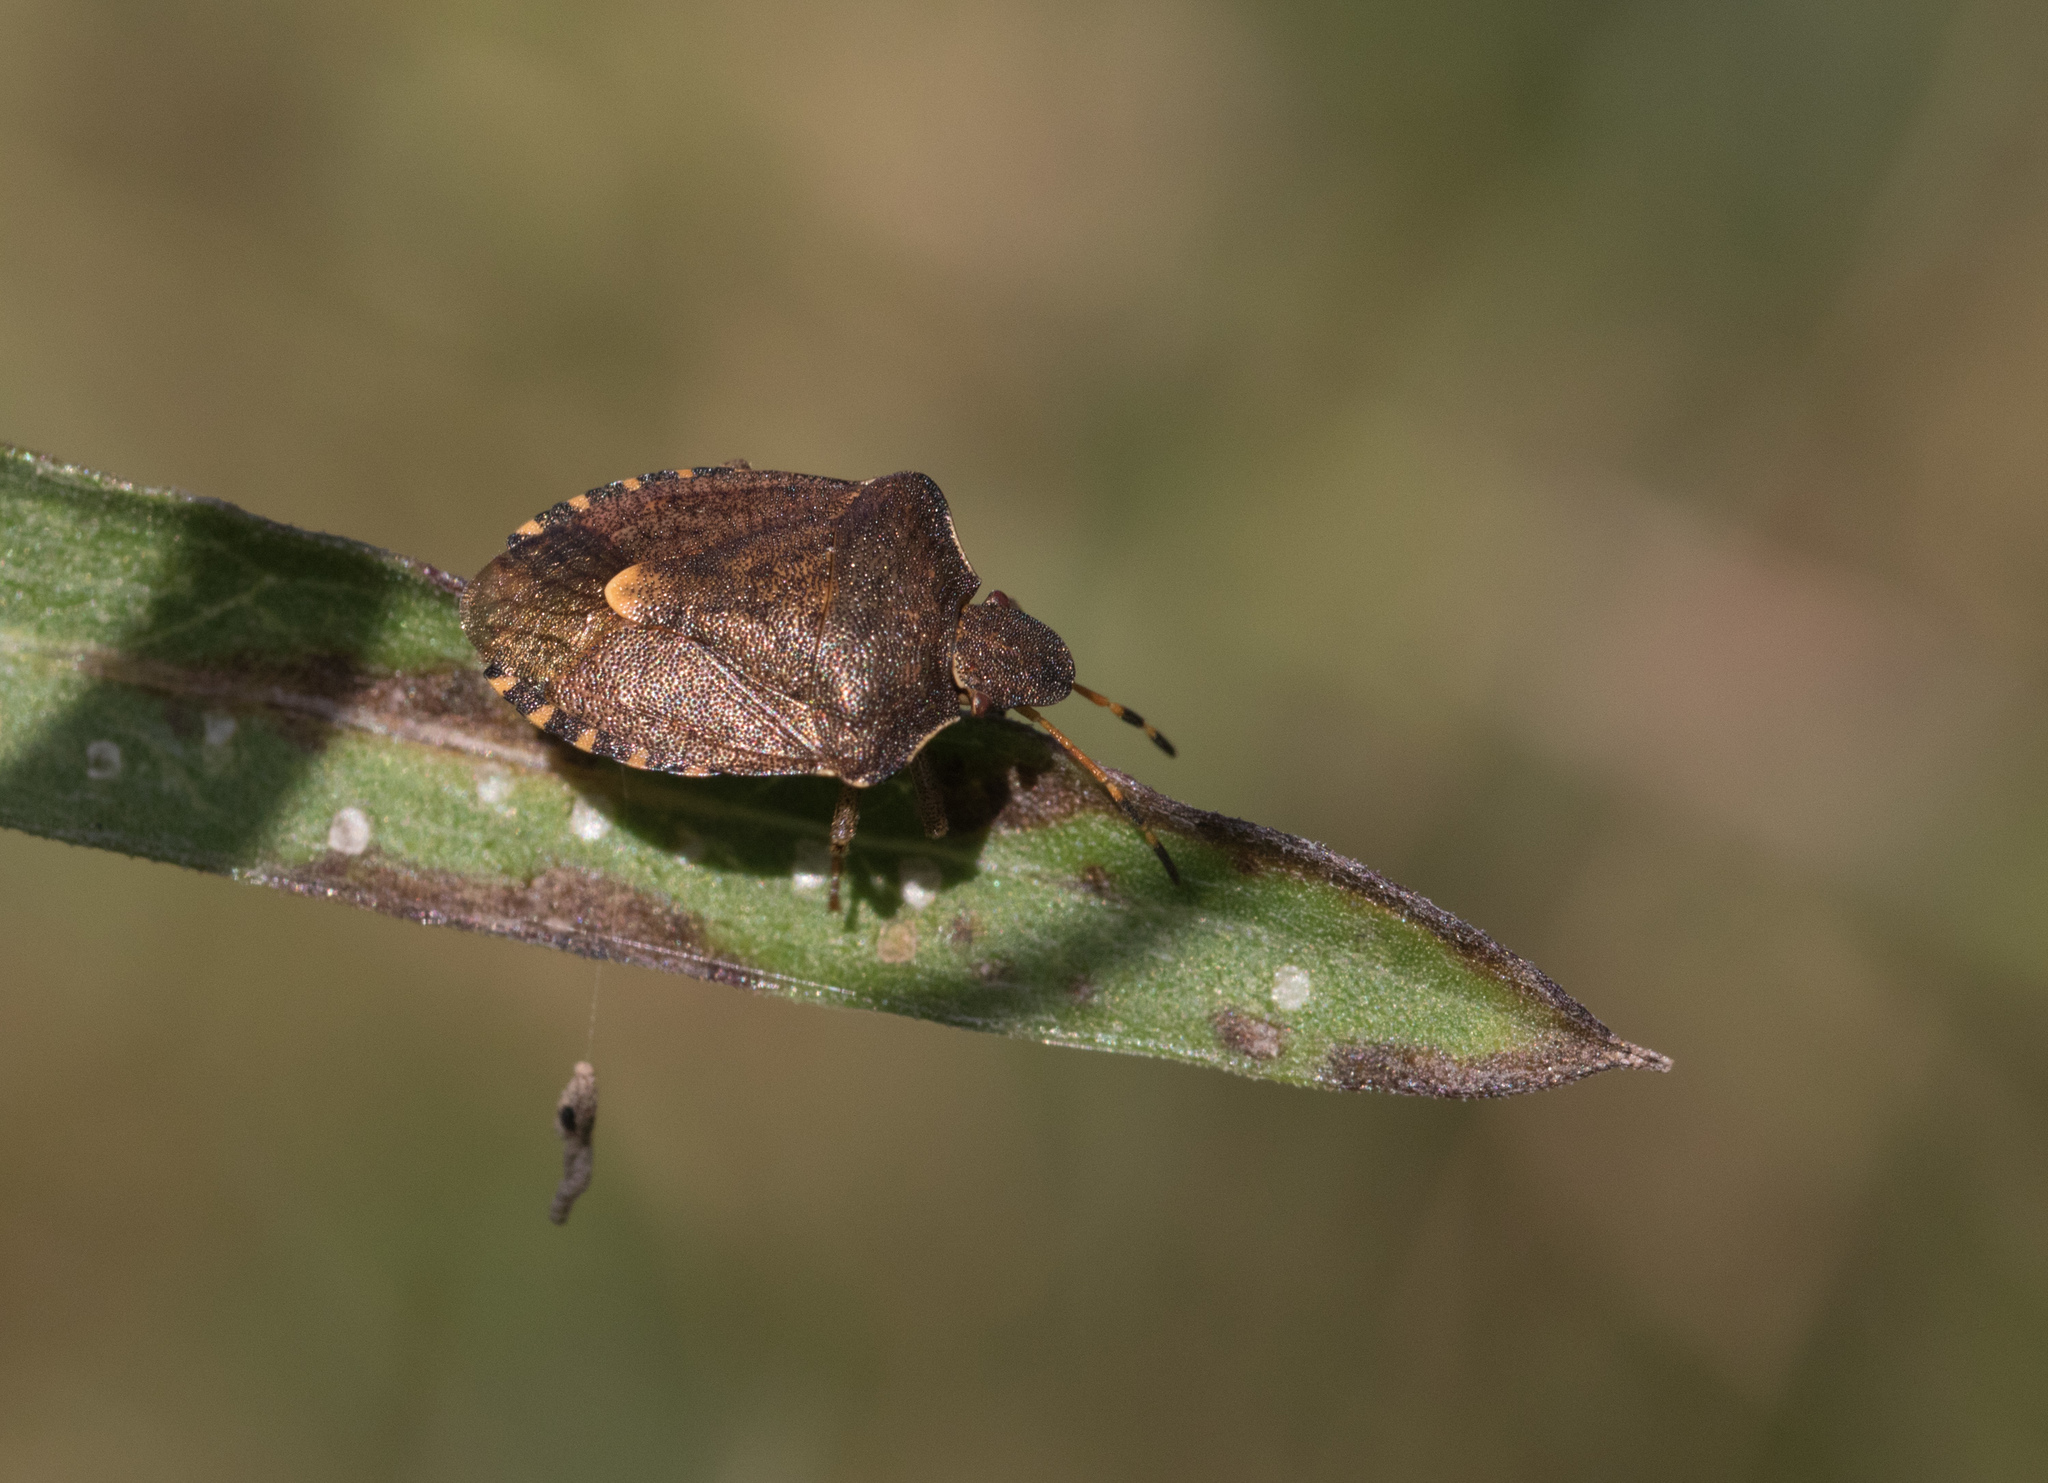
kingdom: Animalia
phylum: Arthropoda
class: Insecta
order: Hemiptera
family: Pentatomidae
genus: Holcostethus
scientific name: Holcostethus strictus
